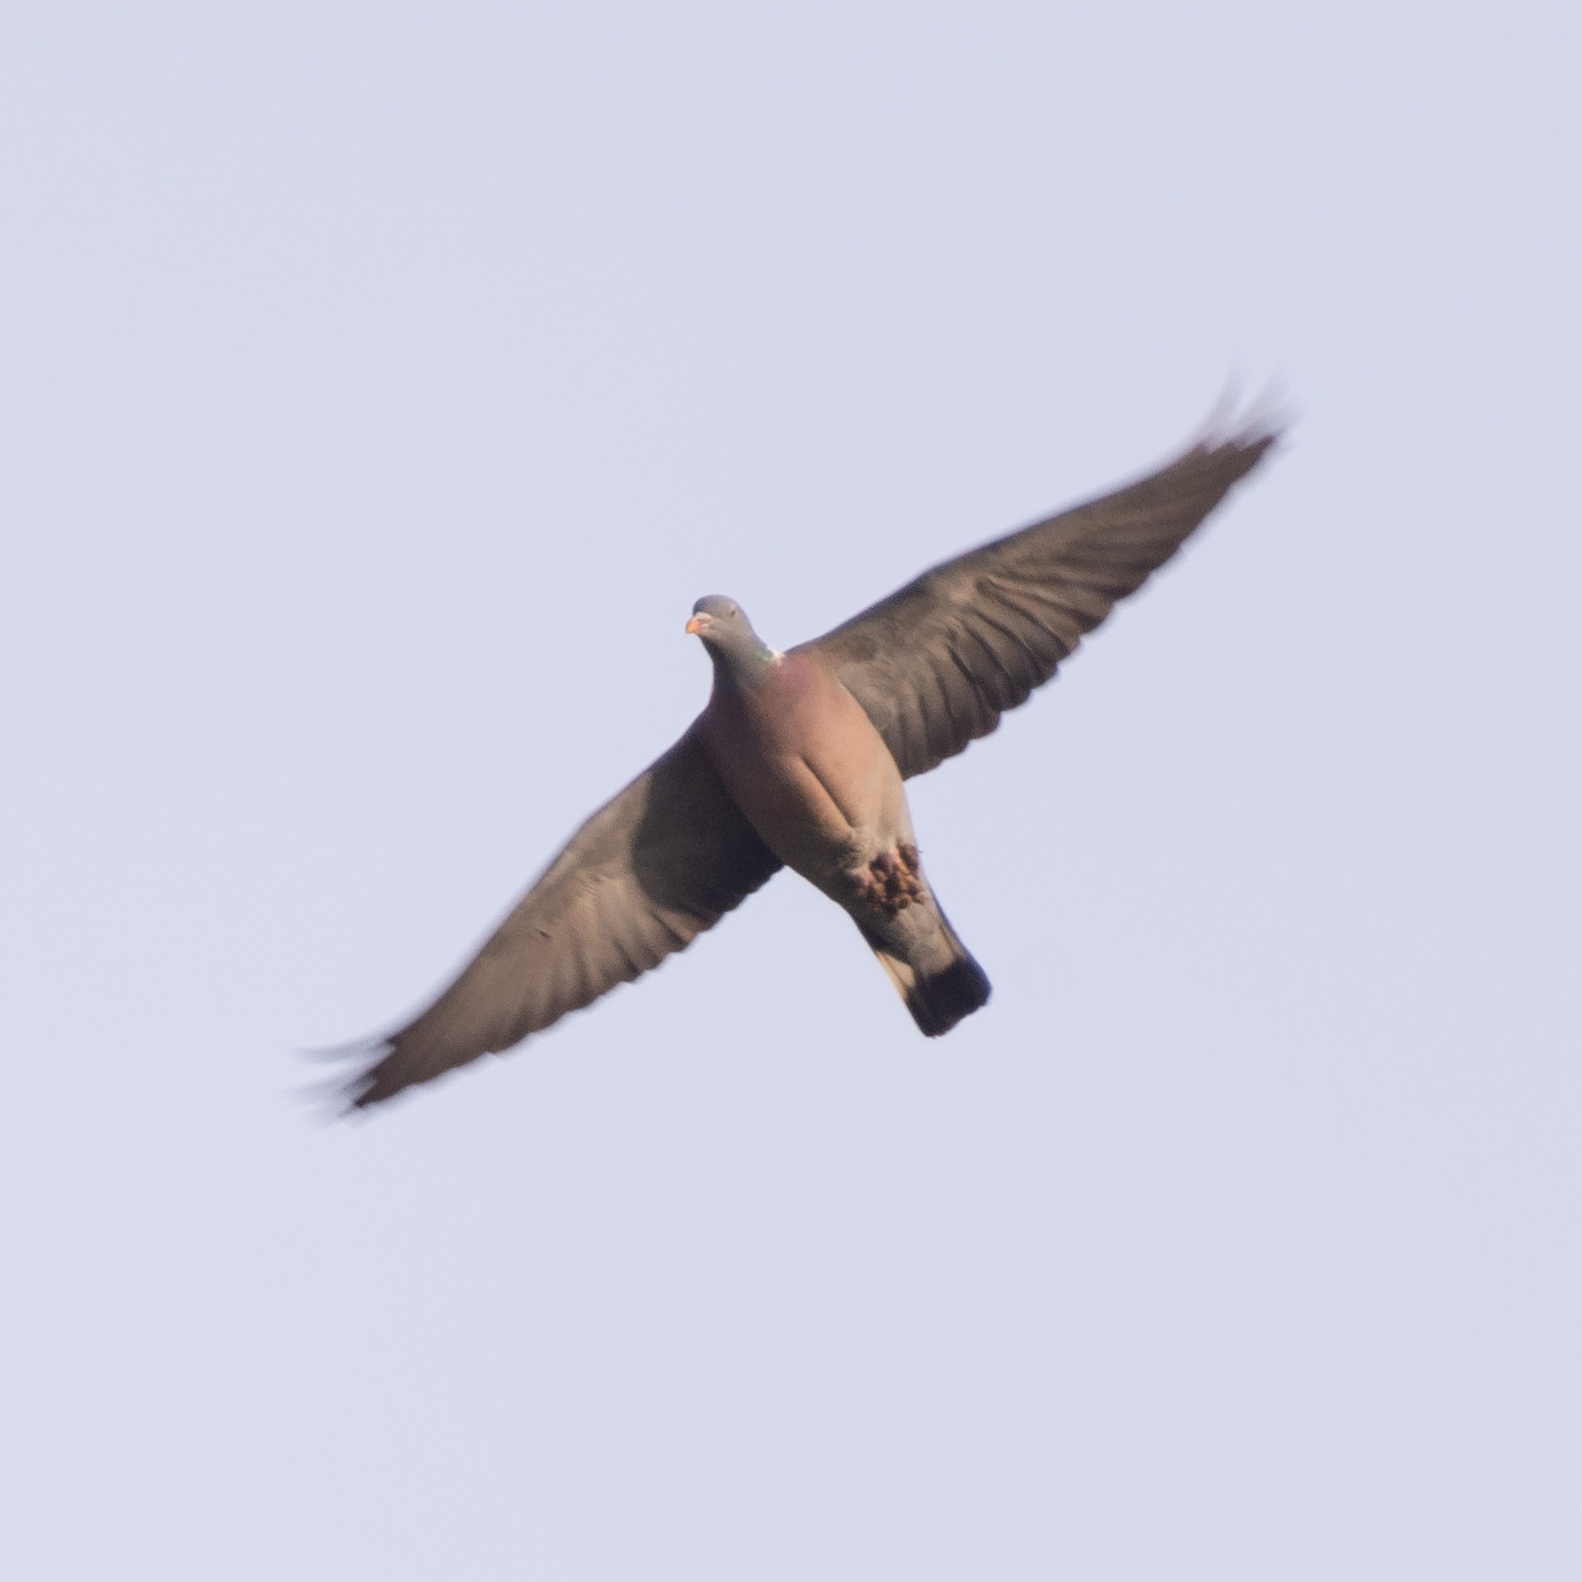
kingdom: Animalia
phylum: Chordata
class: Aves
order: Columbiformes
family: Columbidae
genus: Columba
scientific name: Columba palumbus
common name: Common wood pigeon
